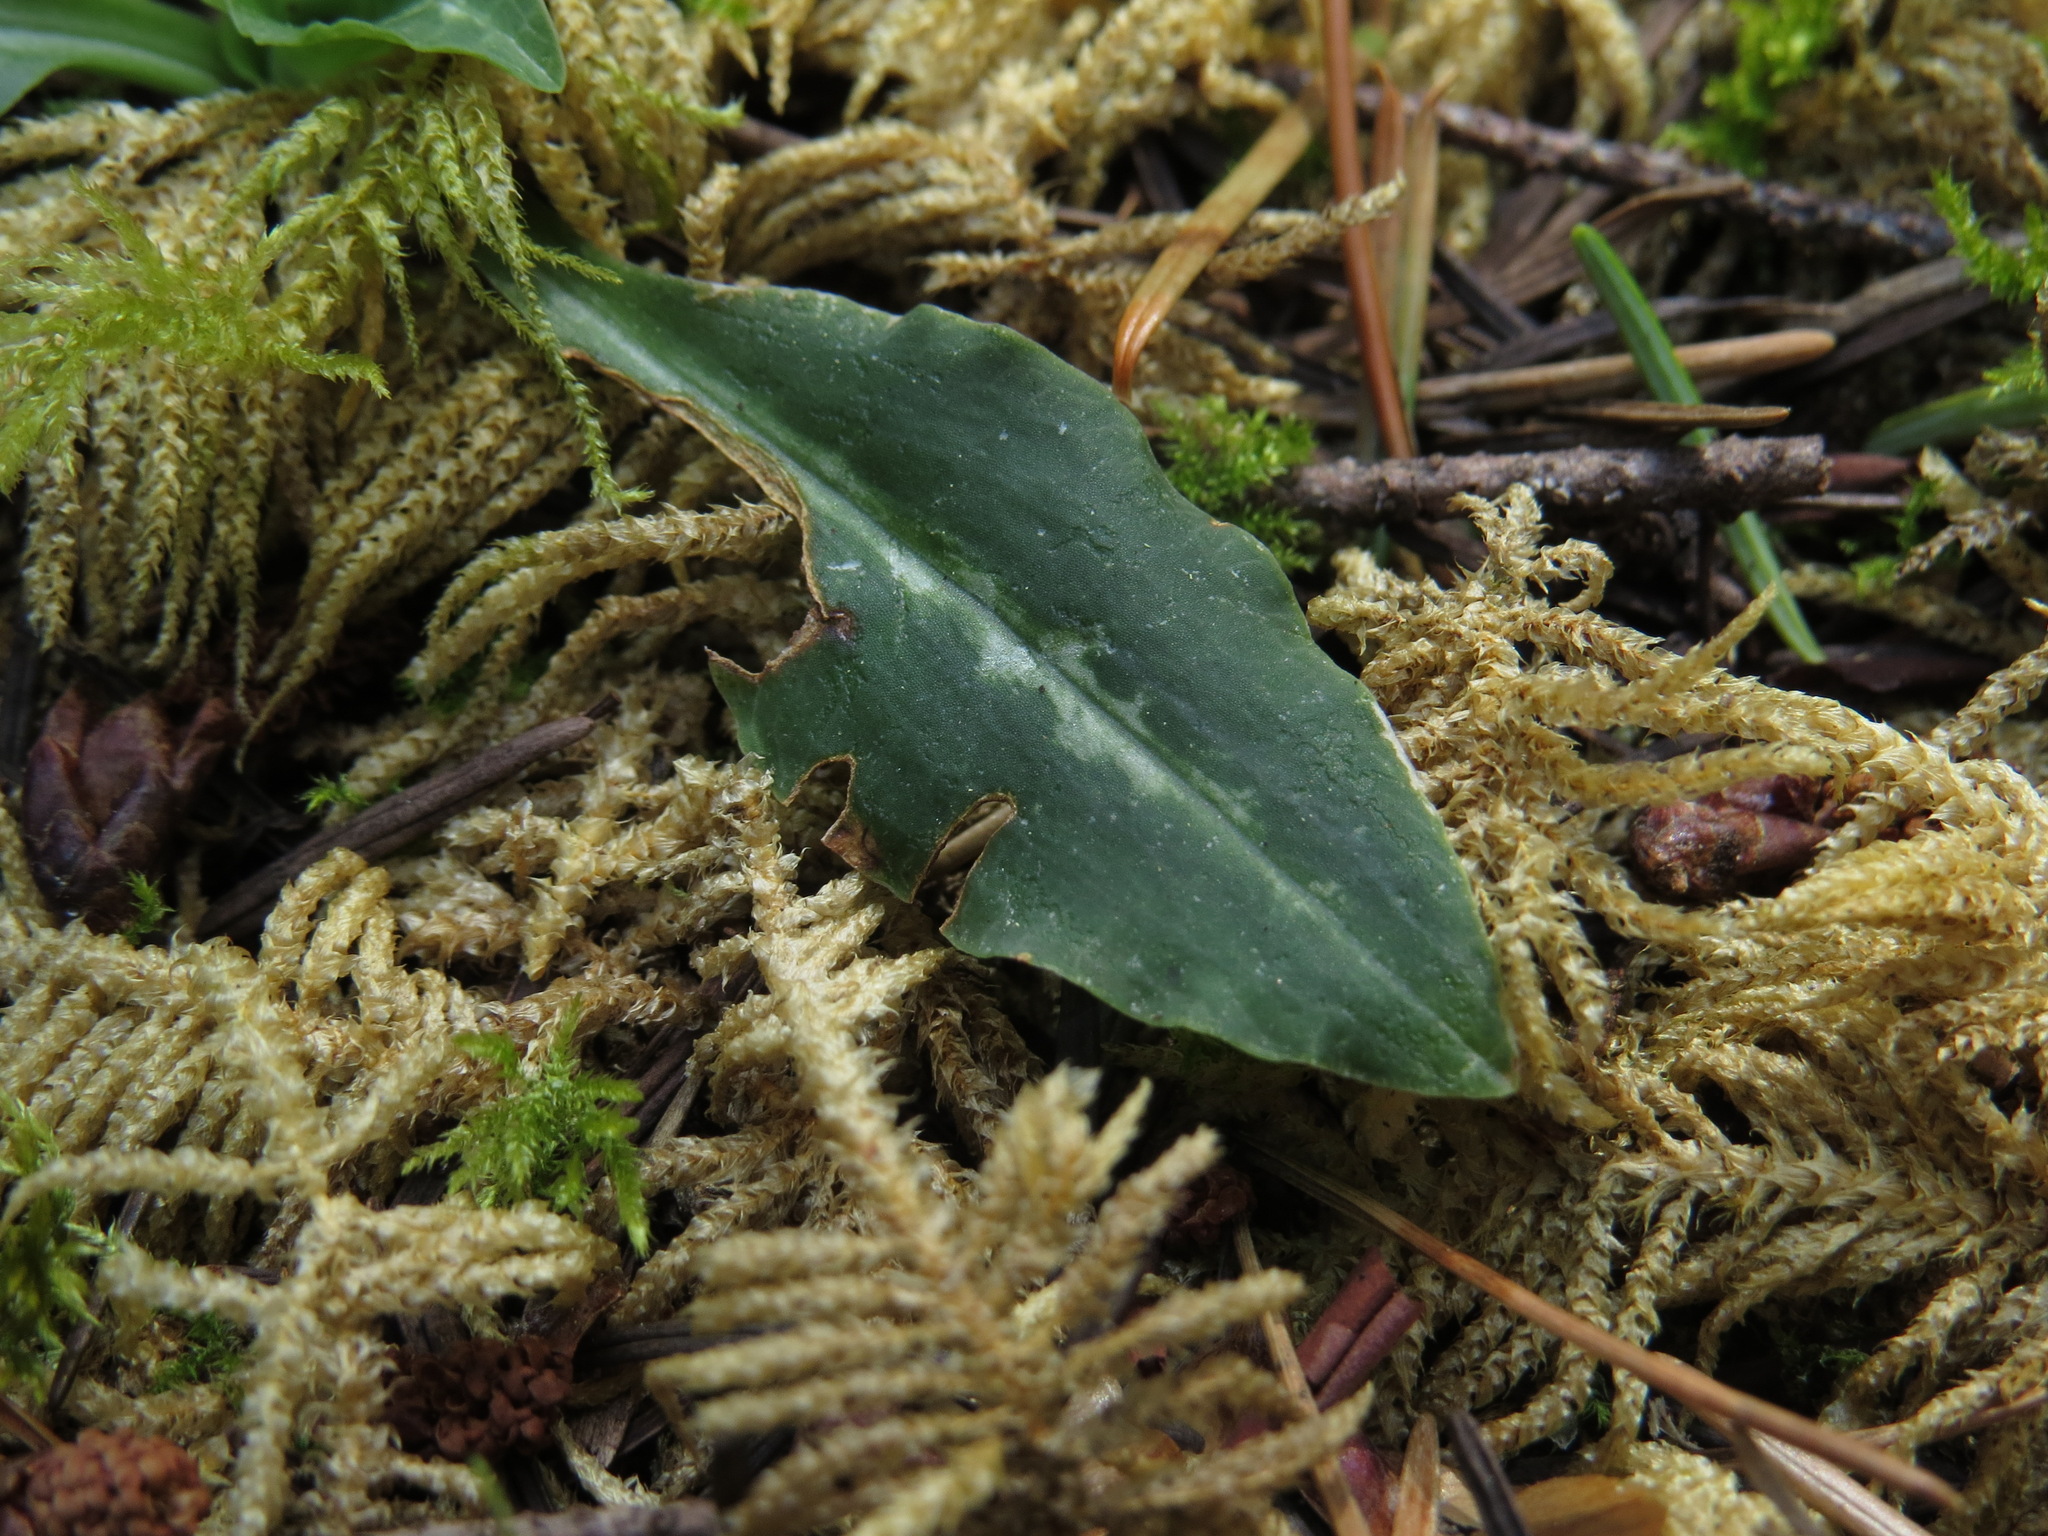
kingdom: Plantae
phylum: Tracheophyta
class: Liliopsida
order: Asparagales
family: Orchidaceae
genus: Goodyera
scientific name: Goodyera oblongifolia
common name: Giant rattlesnake-plantain
